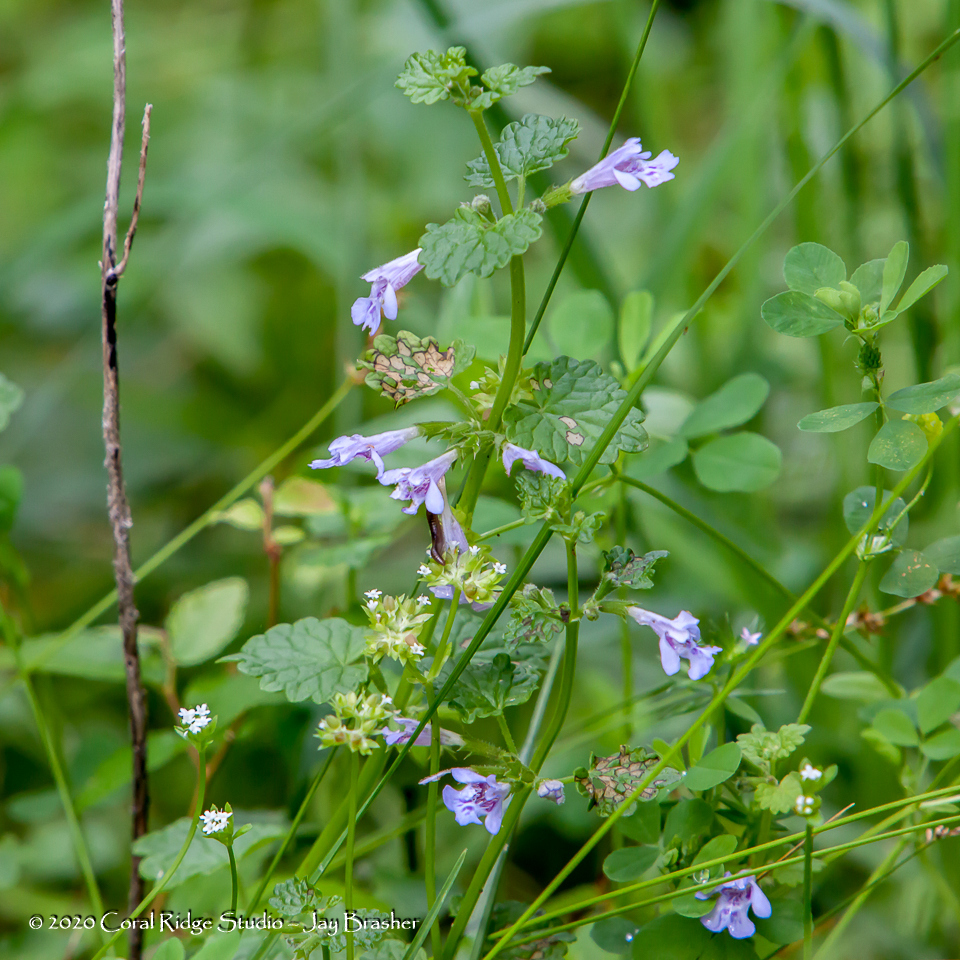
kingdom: Plantae
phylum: Tracheophyta
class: Magnoliopsida
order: Lamiales
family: Lamiaceae
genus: Glechoma
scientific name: Glechoma hederacea
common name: Ground ivy
